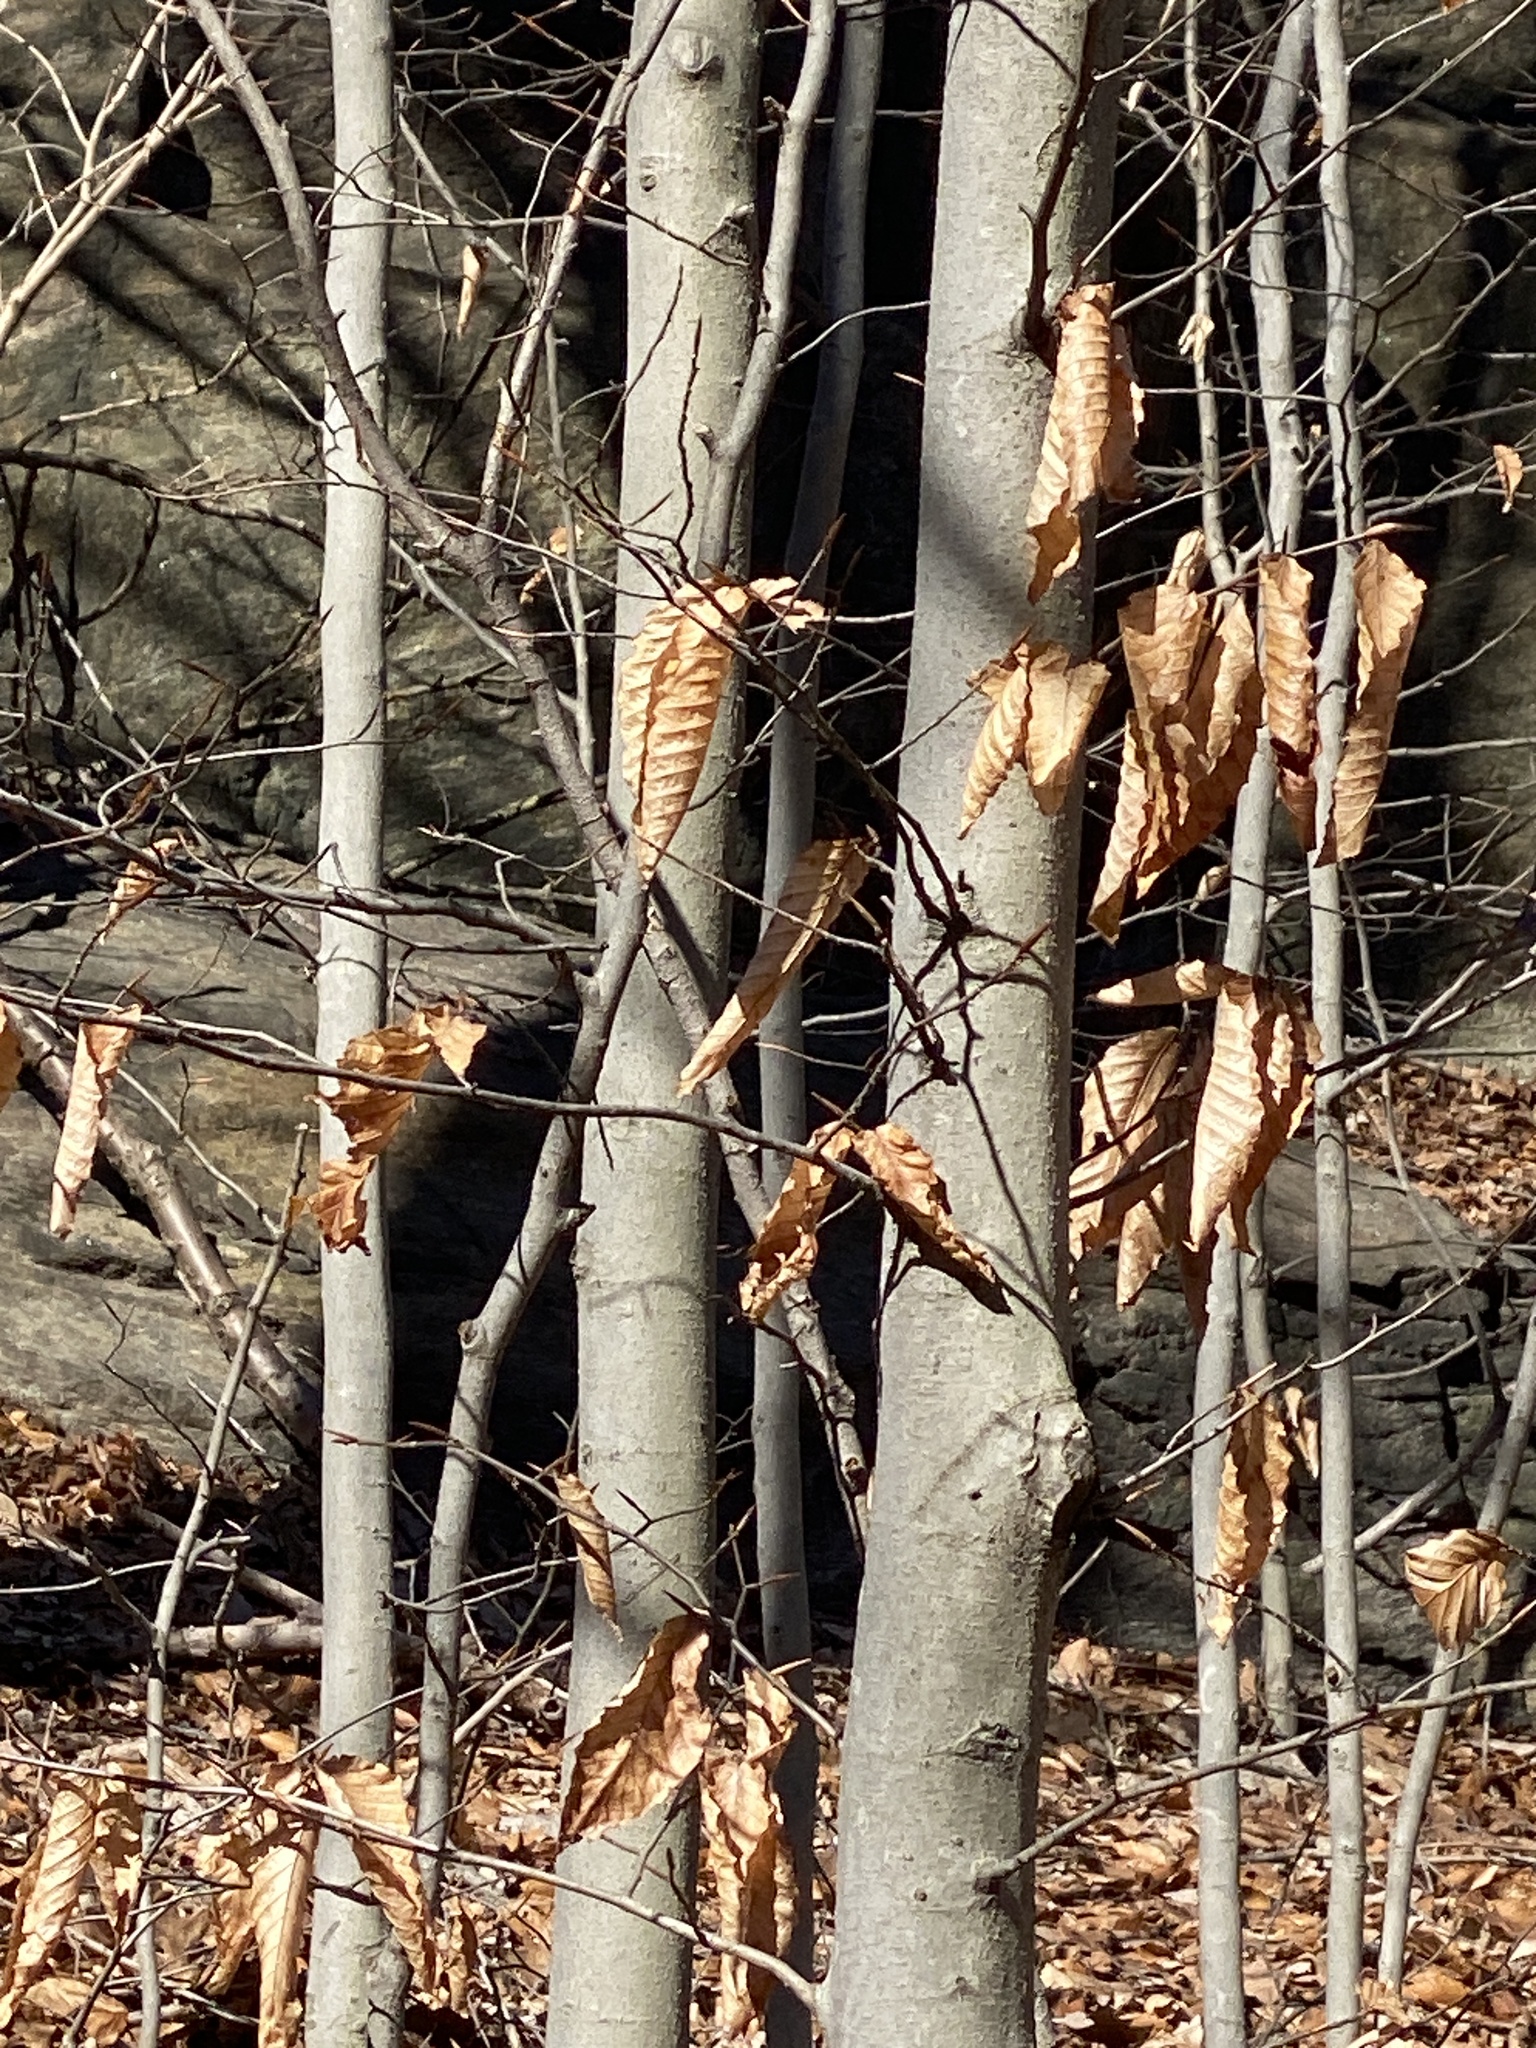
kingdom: Plantae
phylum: Tracheophyta
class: Magnoliopsida
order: Fagales
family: Fagaceae
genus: Fagus
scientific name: Fagus grandifolia
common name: American beech
